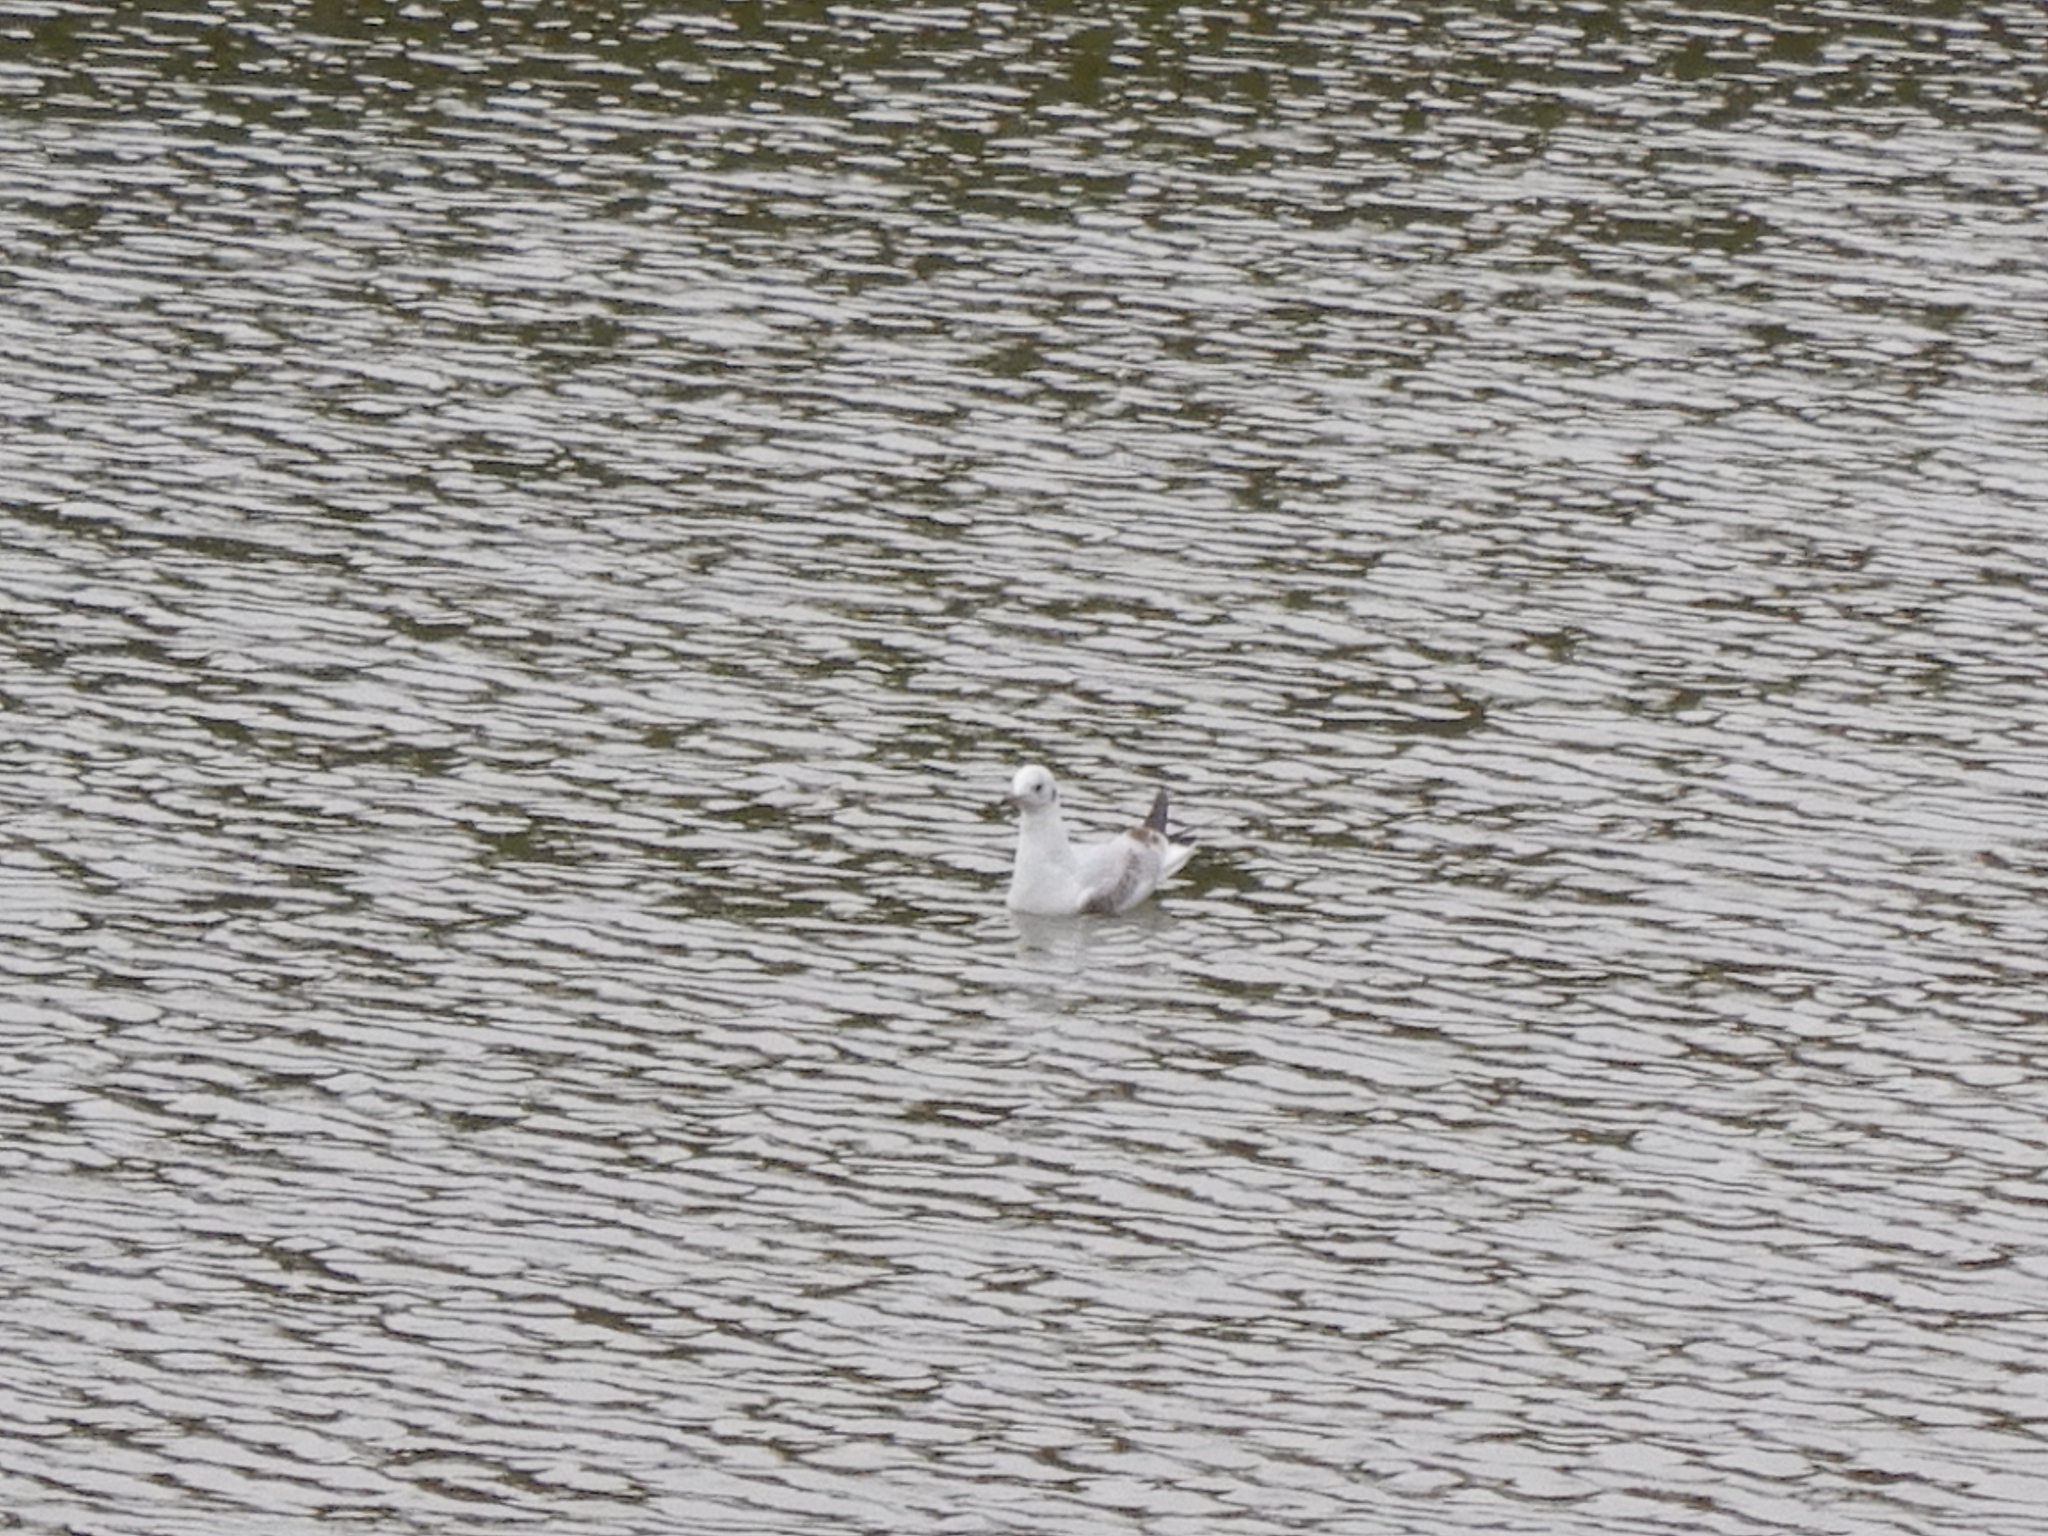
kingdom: Animalia
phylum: Chordata
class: Aves
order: Charadriiformes
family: Laridae
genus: Chroicocephalus
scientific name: Chroicocephalus ridibundus
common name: Black-headed gull
